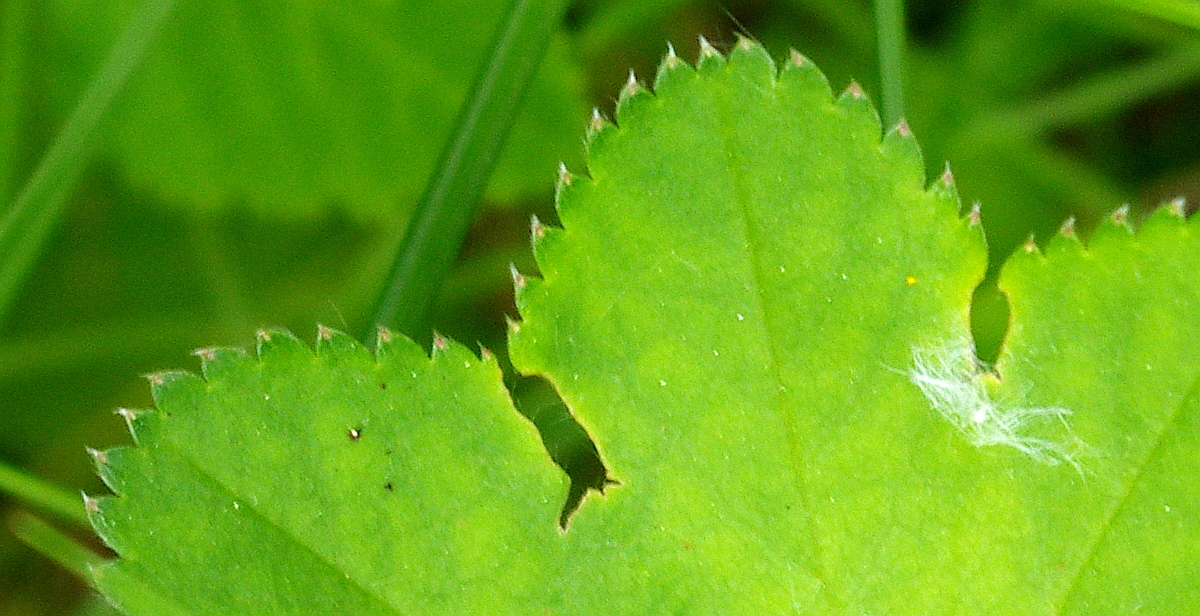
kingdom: Plantae
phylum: Tracheophyta
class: Magnoliopsida
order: Rosales
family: Rosaceae
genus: Alchemilla
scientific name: Alchemilla lindbergiana
